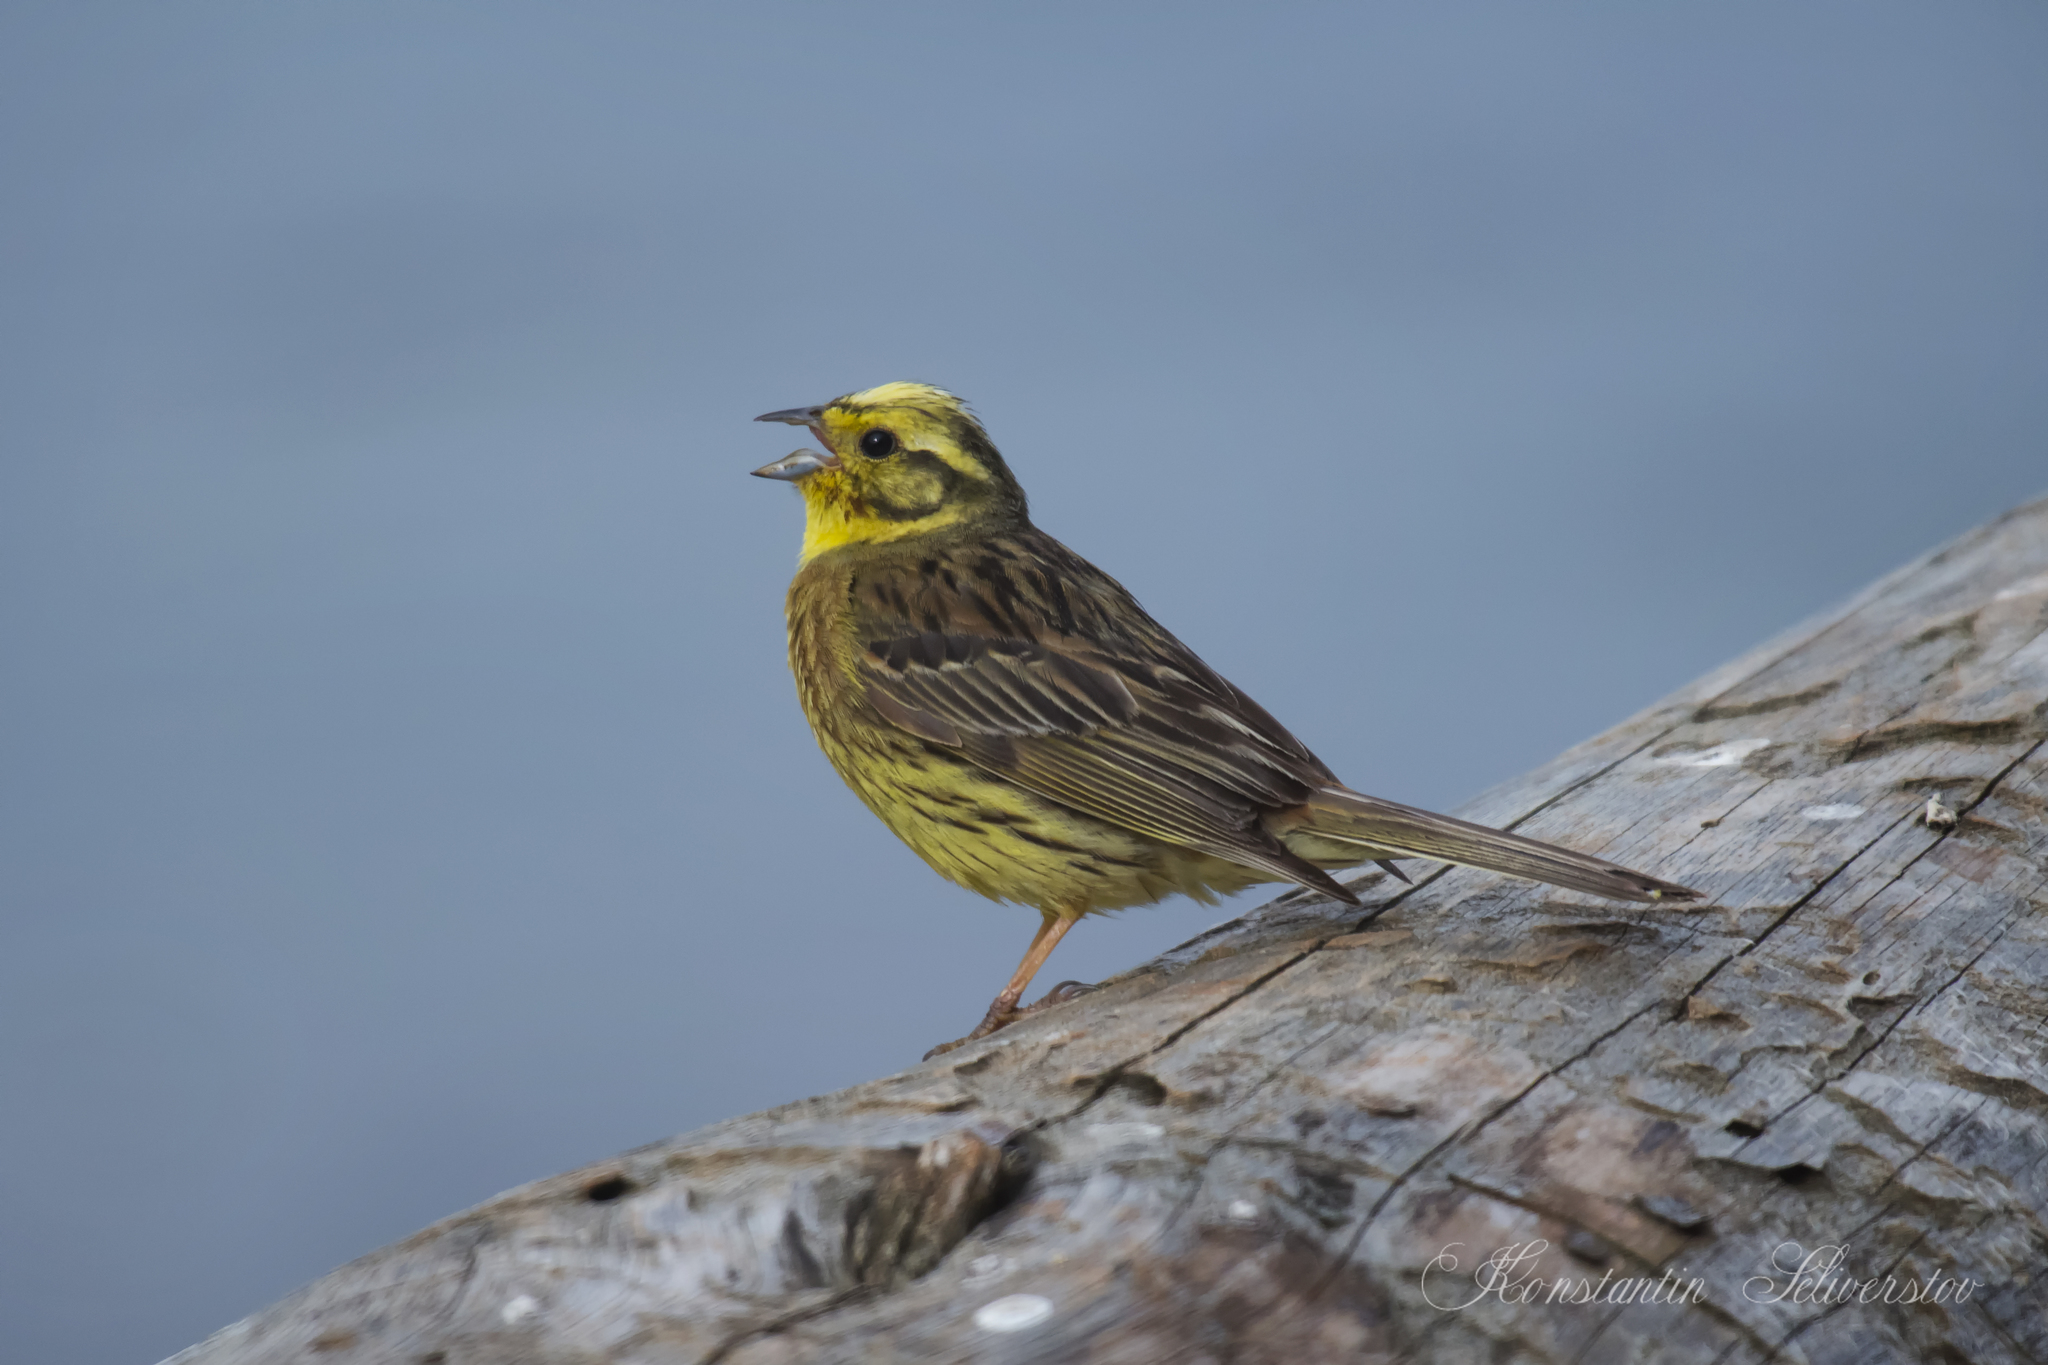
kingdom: Animalia
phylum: Chordata
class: Aves
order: Passeriformes
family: Emberizidae
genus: Emberiza
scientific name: Emberiza citrinella
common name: Yellowhammer
